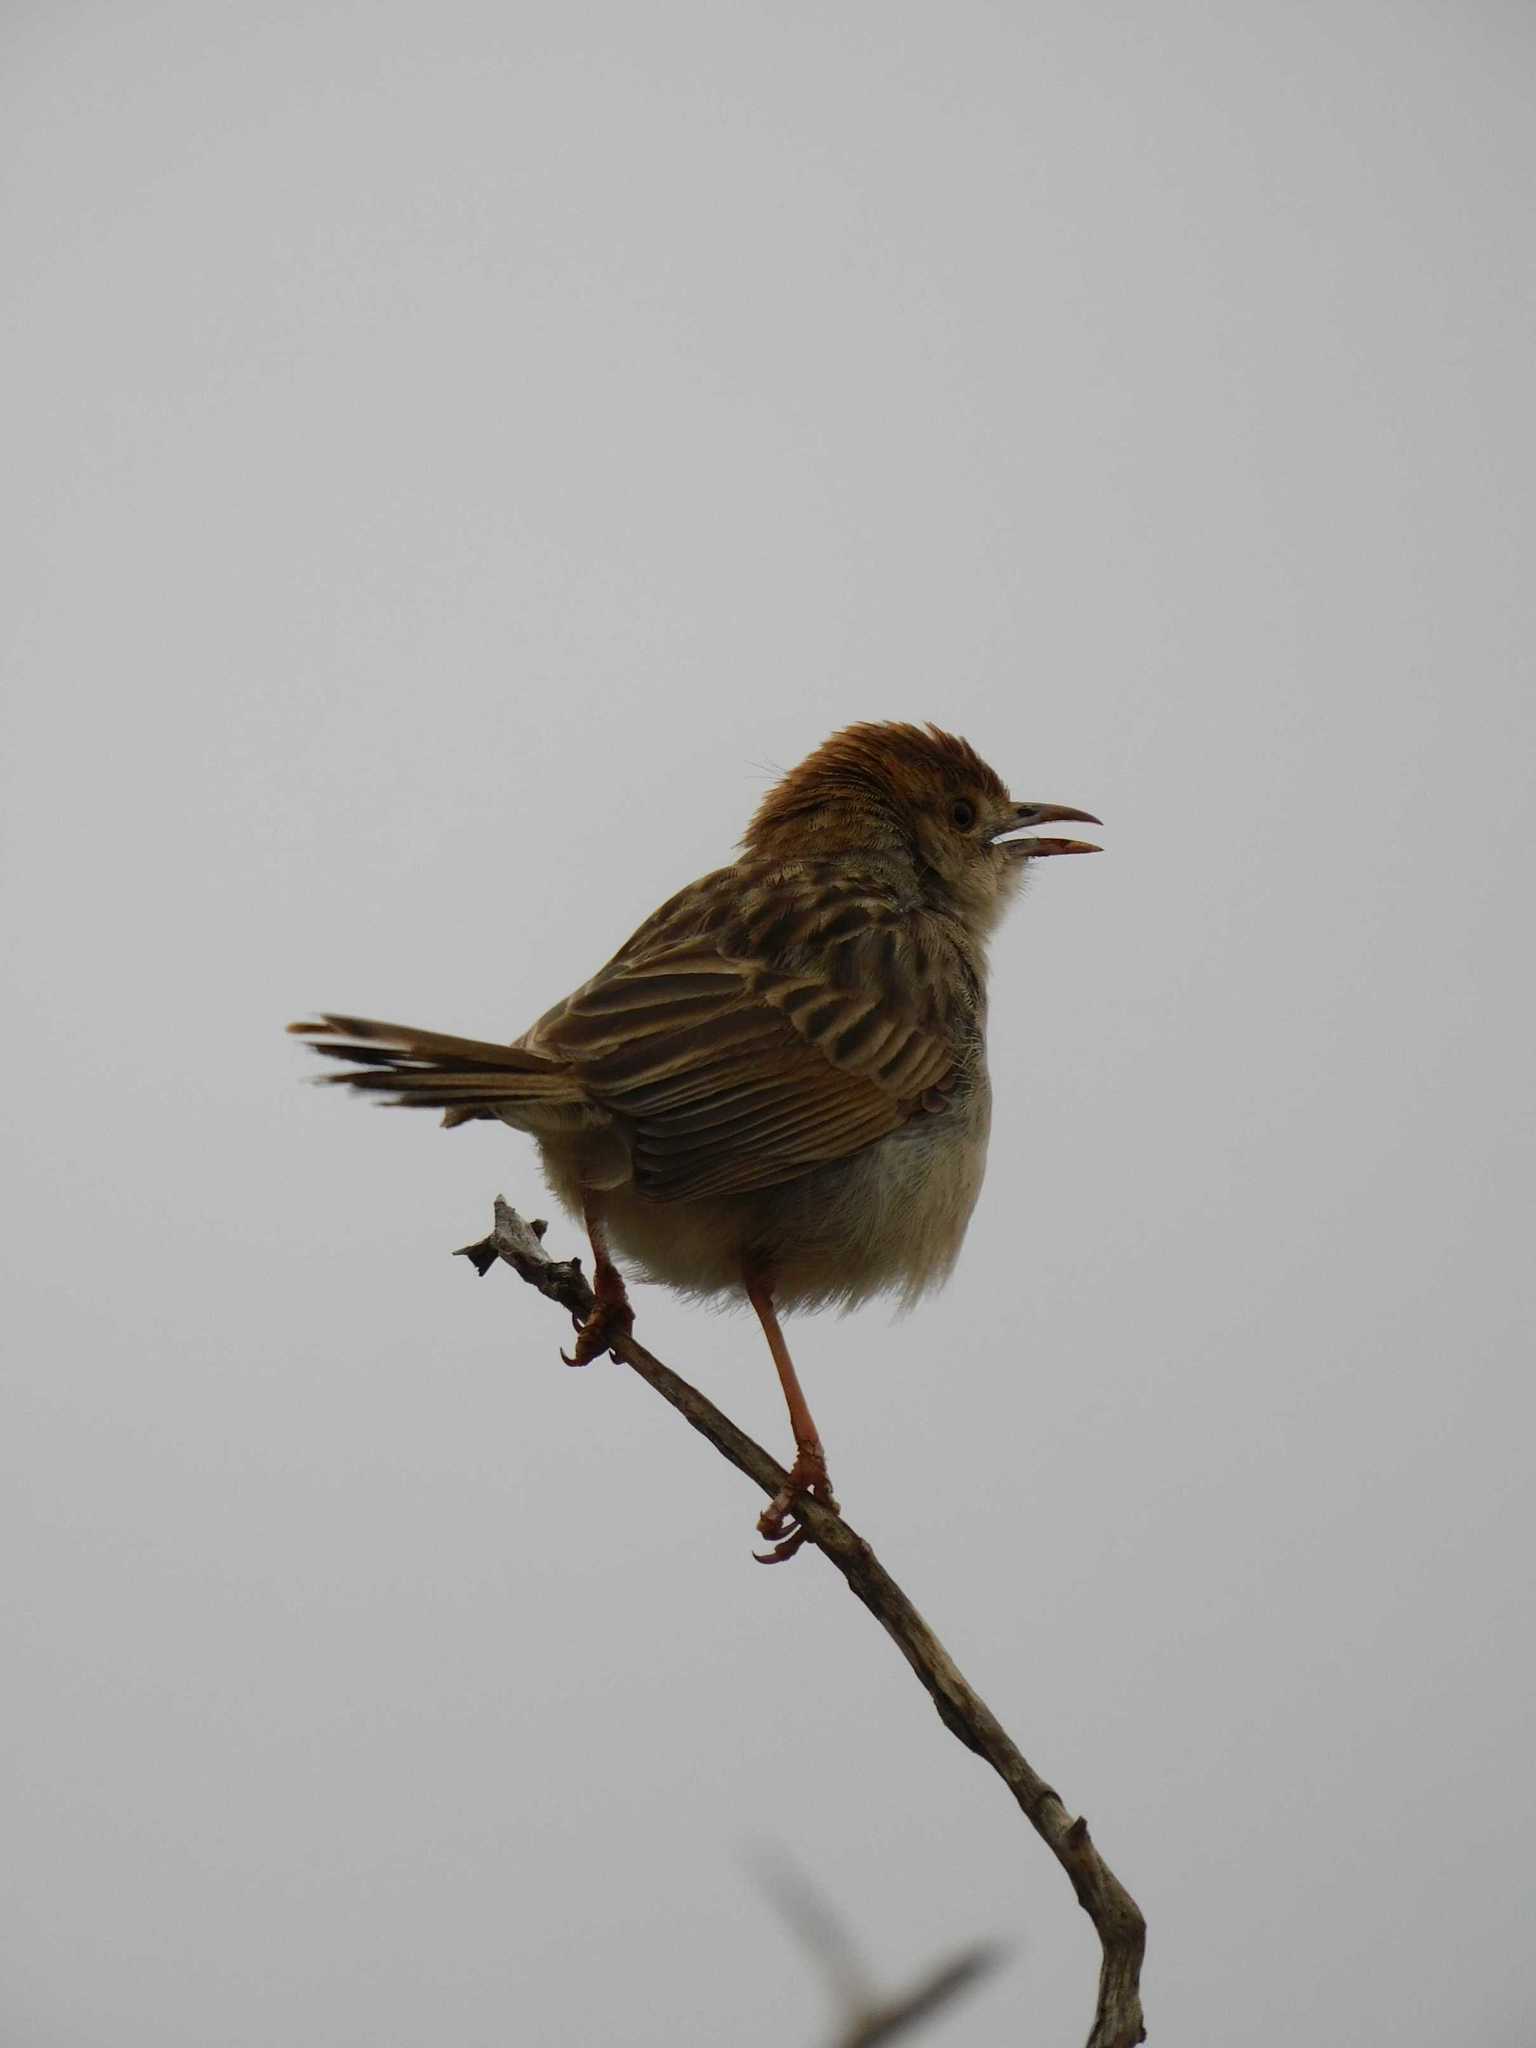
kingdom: Animalia
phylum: Chordata
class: Aves
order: Passeriformes
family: Cisticolidae
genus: Cisticola
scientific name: Cisticola chiniana
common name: Rattling cisticola
